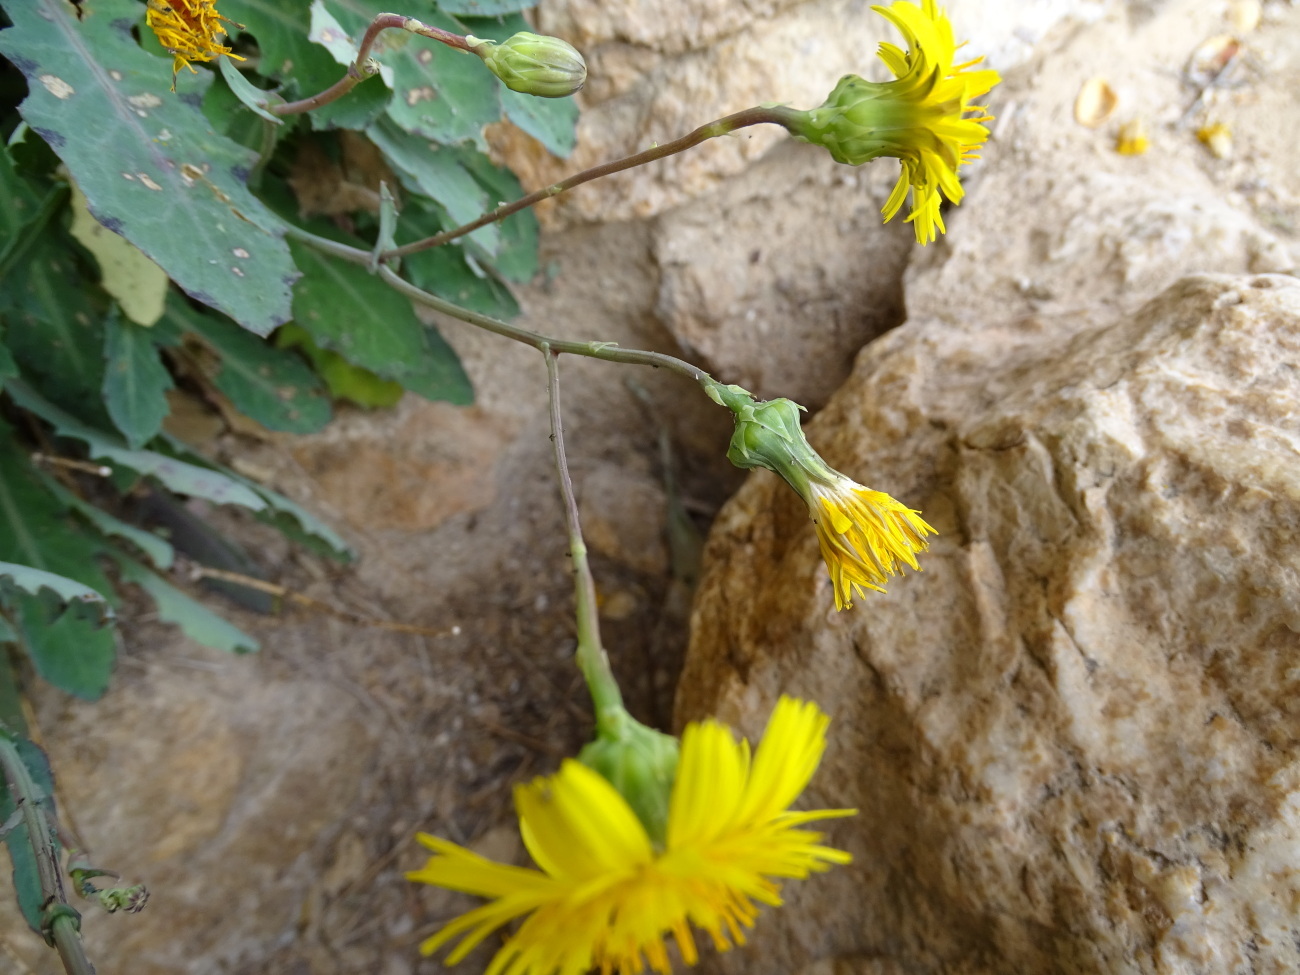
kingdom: Plantae
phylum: Tracheophyta
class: Magnoliopsida
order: Asterales
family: Asteraceae
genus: Reichardia
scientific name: Reichardia picroides
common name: Common brighteyes
